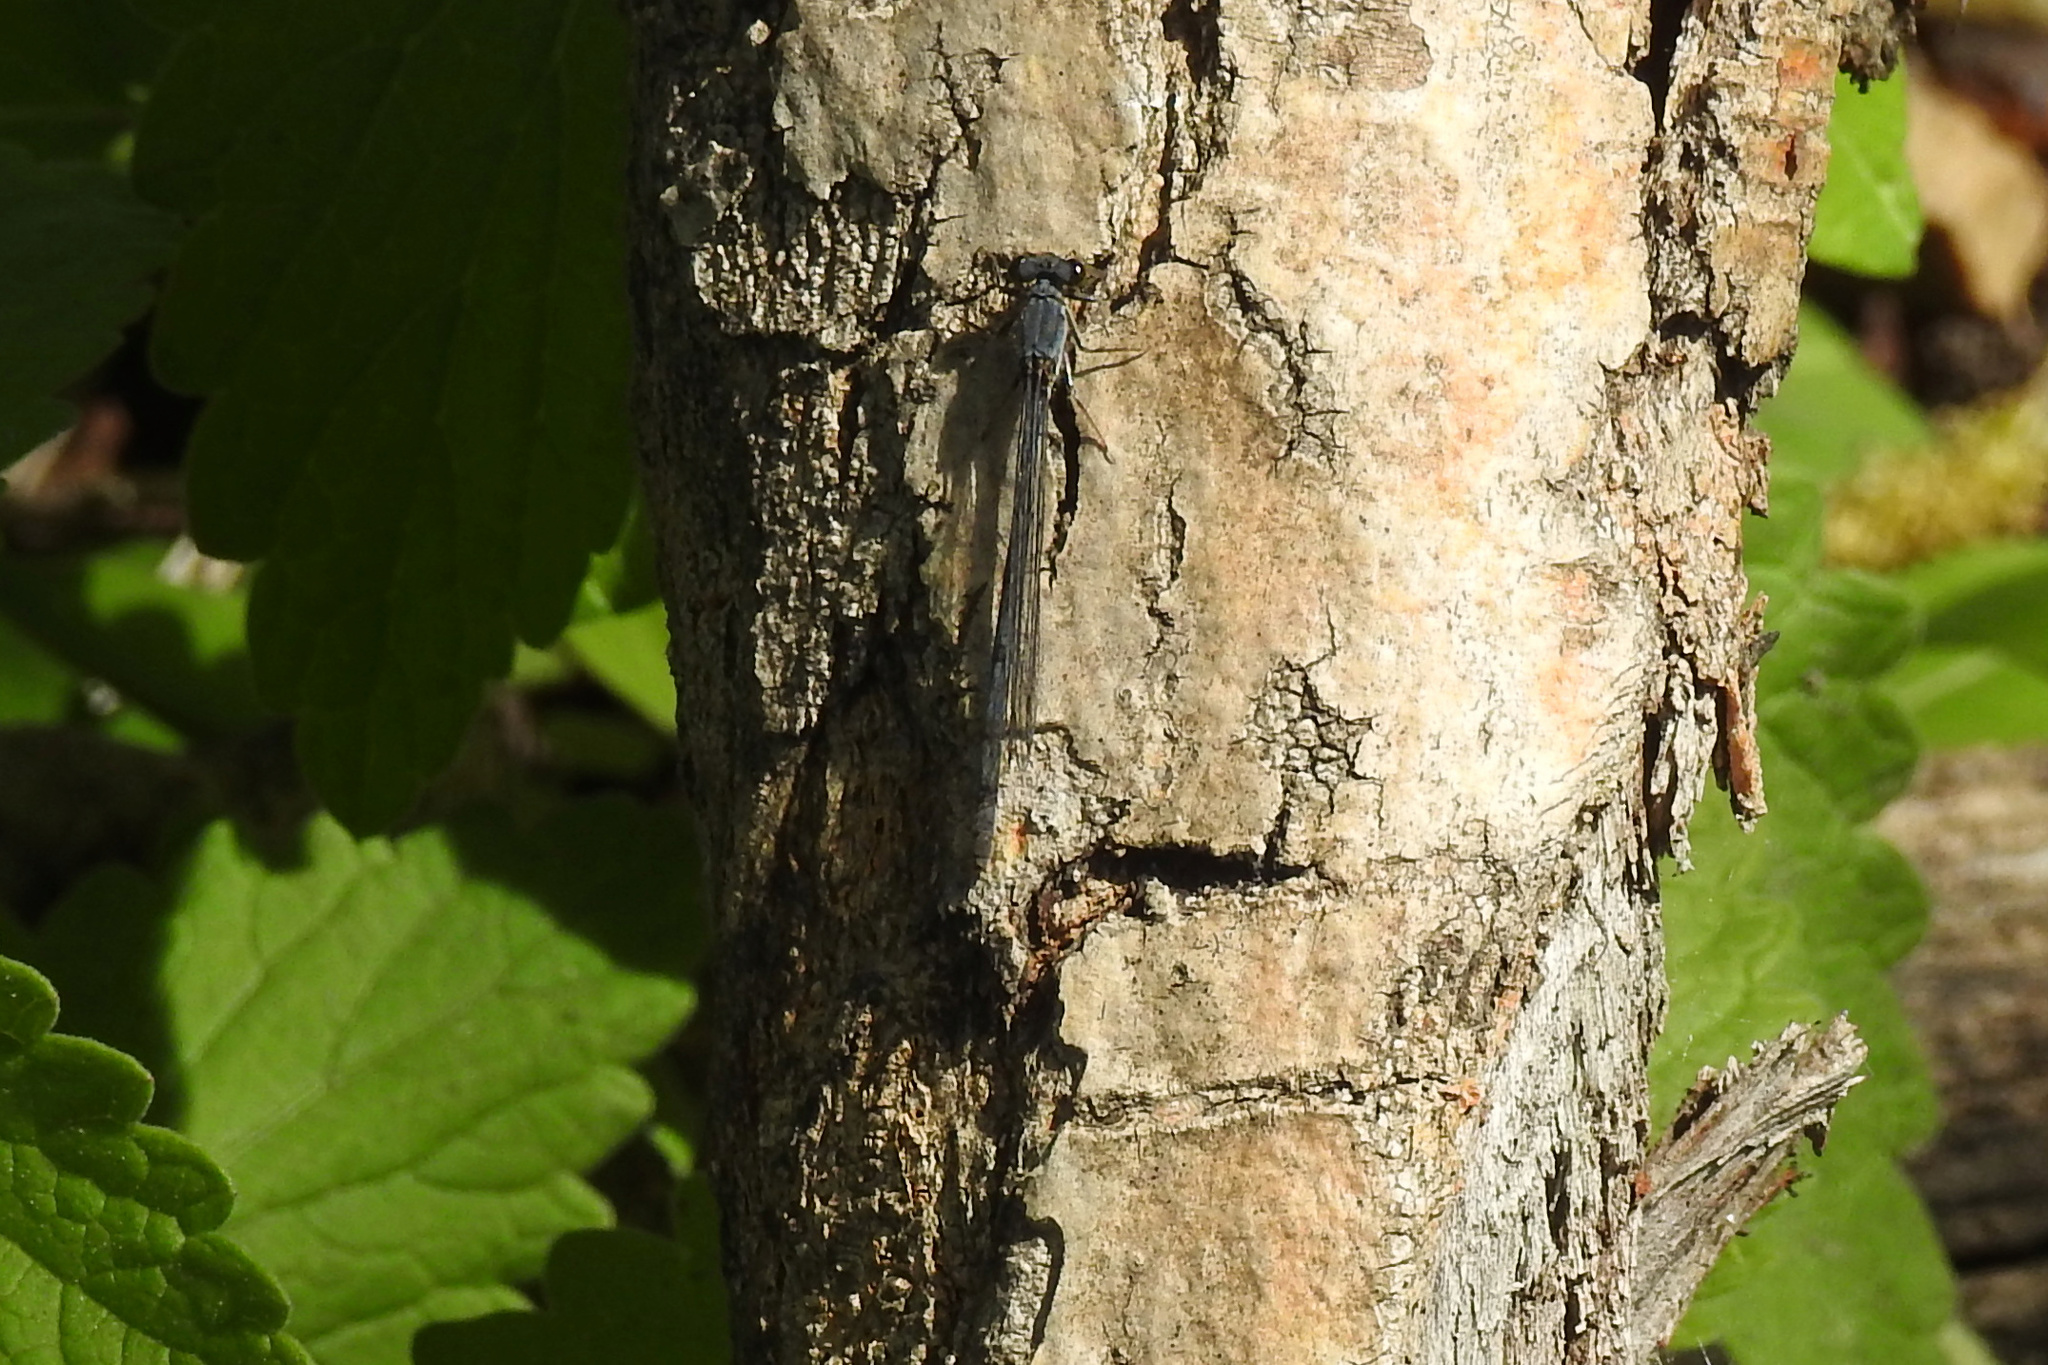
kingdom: Animalia
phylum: Arthropoda
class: Insecta
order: Odonata
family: Coenagrionidae
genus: Ischnura
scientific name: Ischnura posita
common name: Fragile forktail
